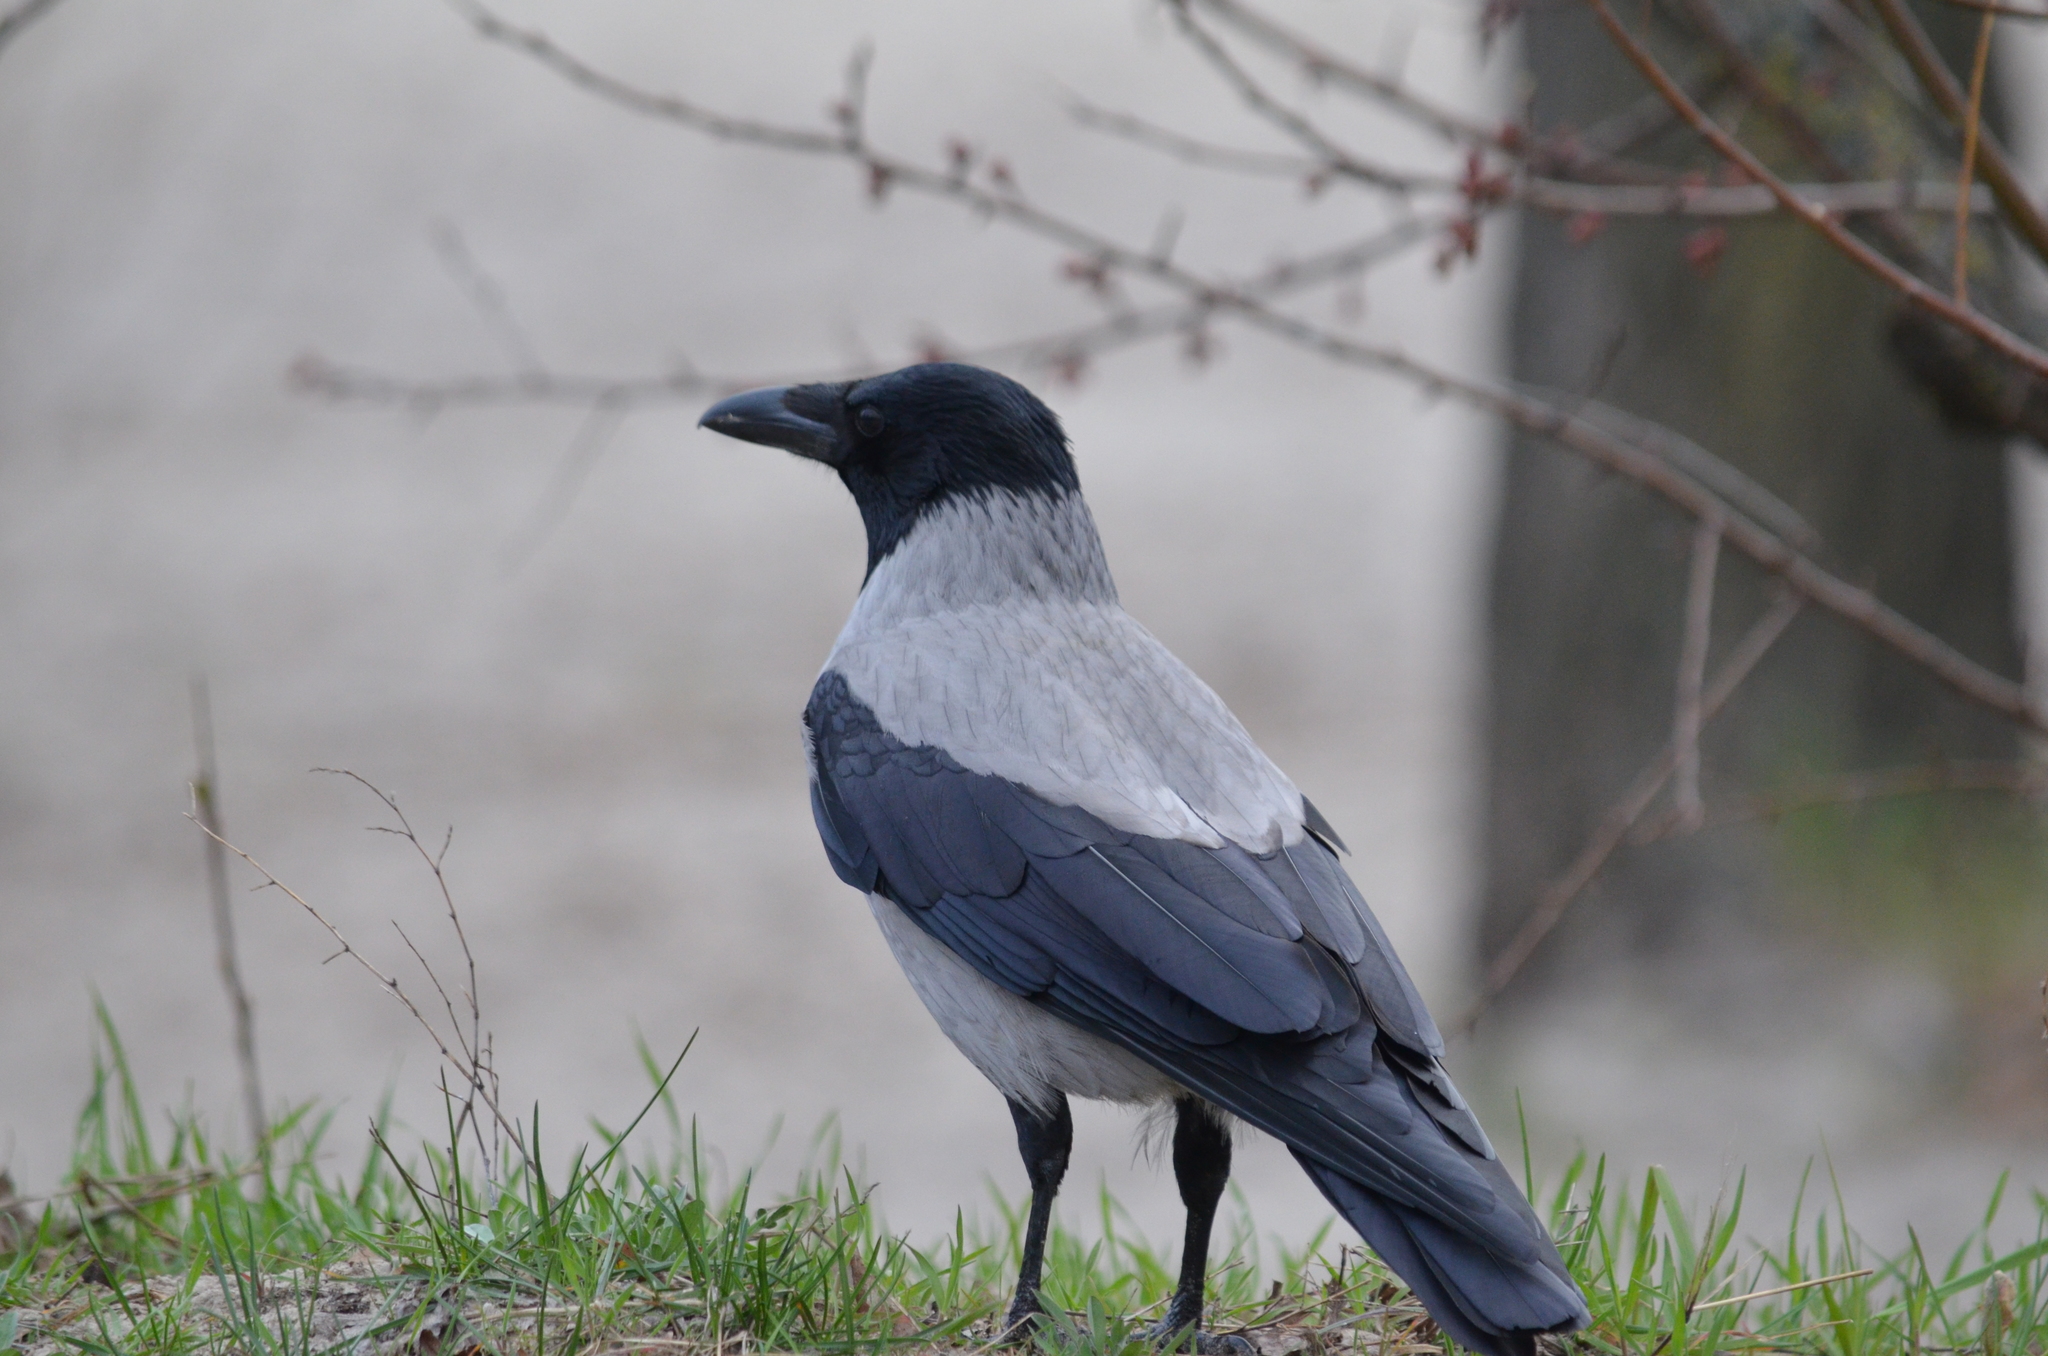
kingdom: Animalia
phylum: Chordata
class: Aves
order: Passeriformes
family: Corvidae
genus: Corvus
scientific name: Corvus cornix
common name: Hooded crow
